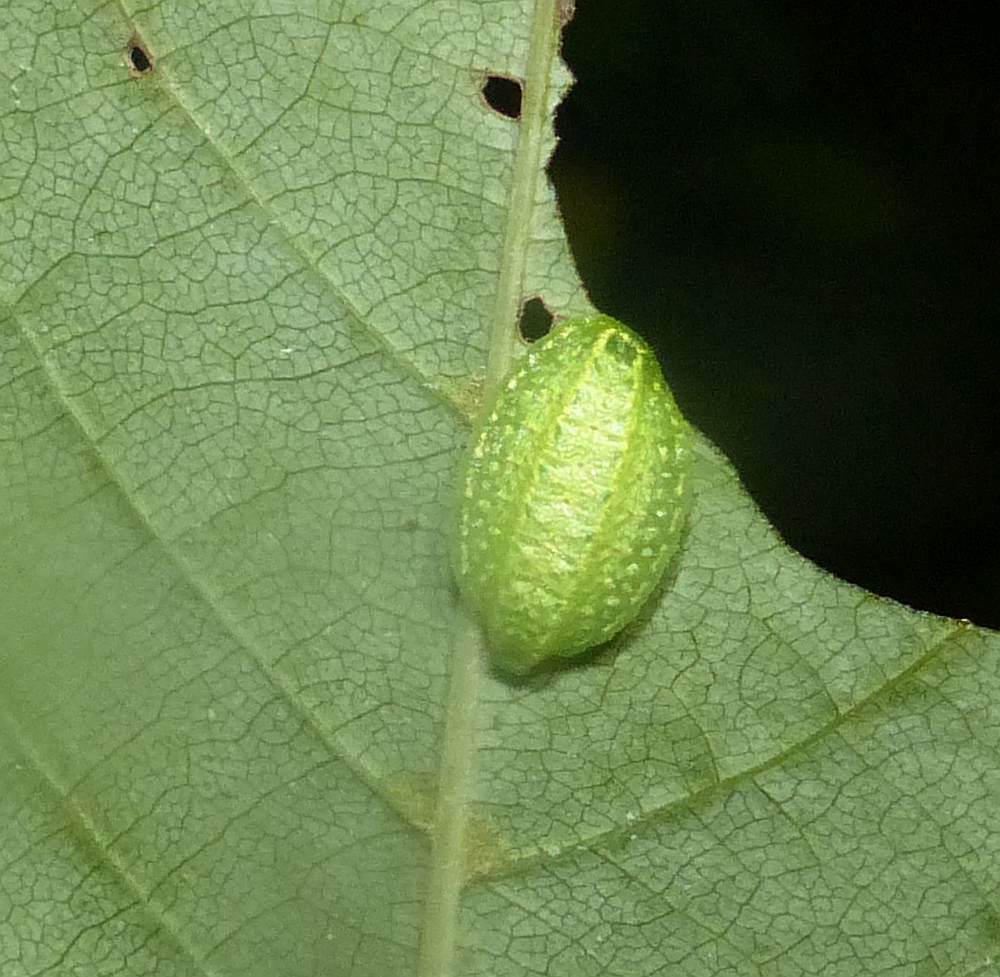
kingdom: Animalia
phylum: Arthropoda
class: Insecta
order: Lepidoptera
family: Limacodidae
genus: Lithacodes
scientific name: Lithacodes fasciola
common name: Yellow-shouldered slug moth
